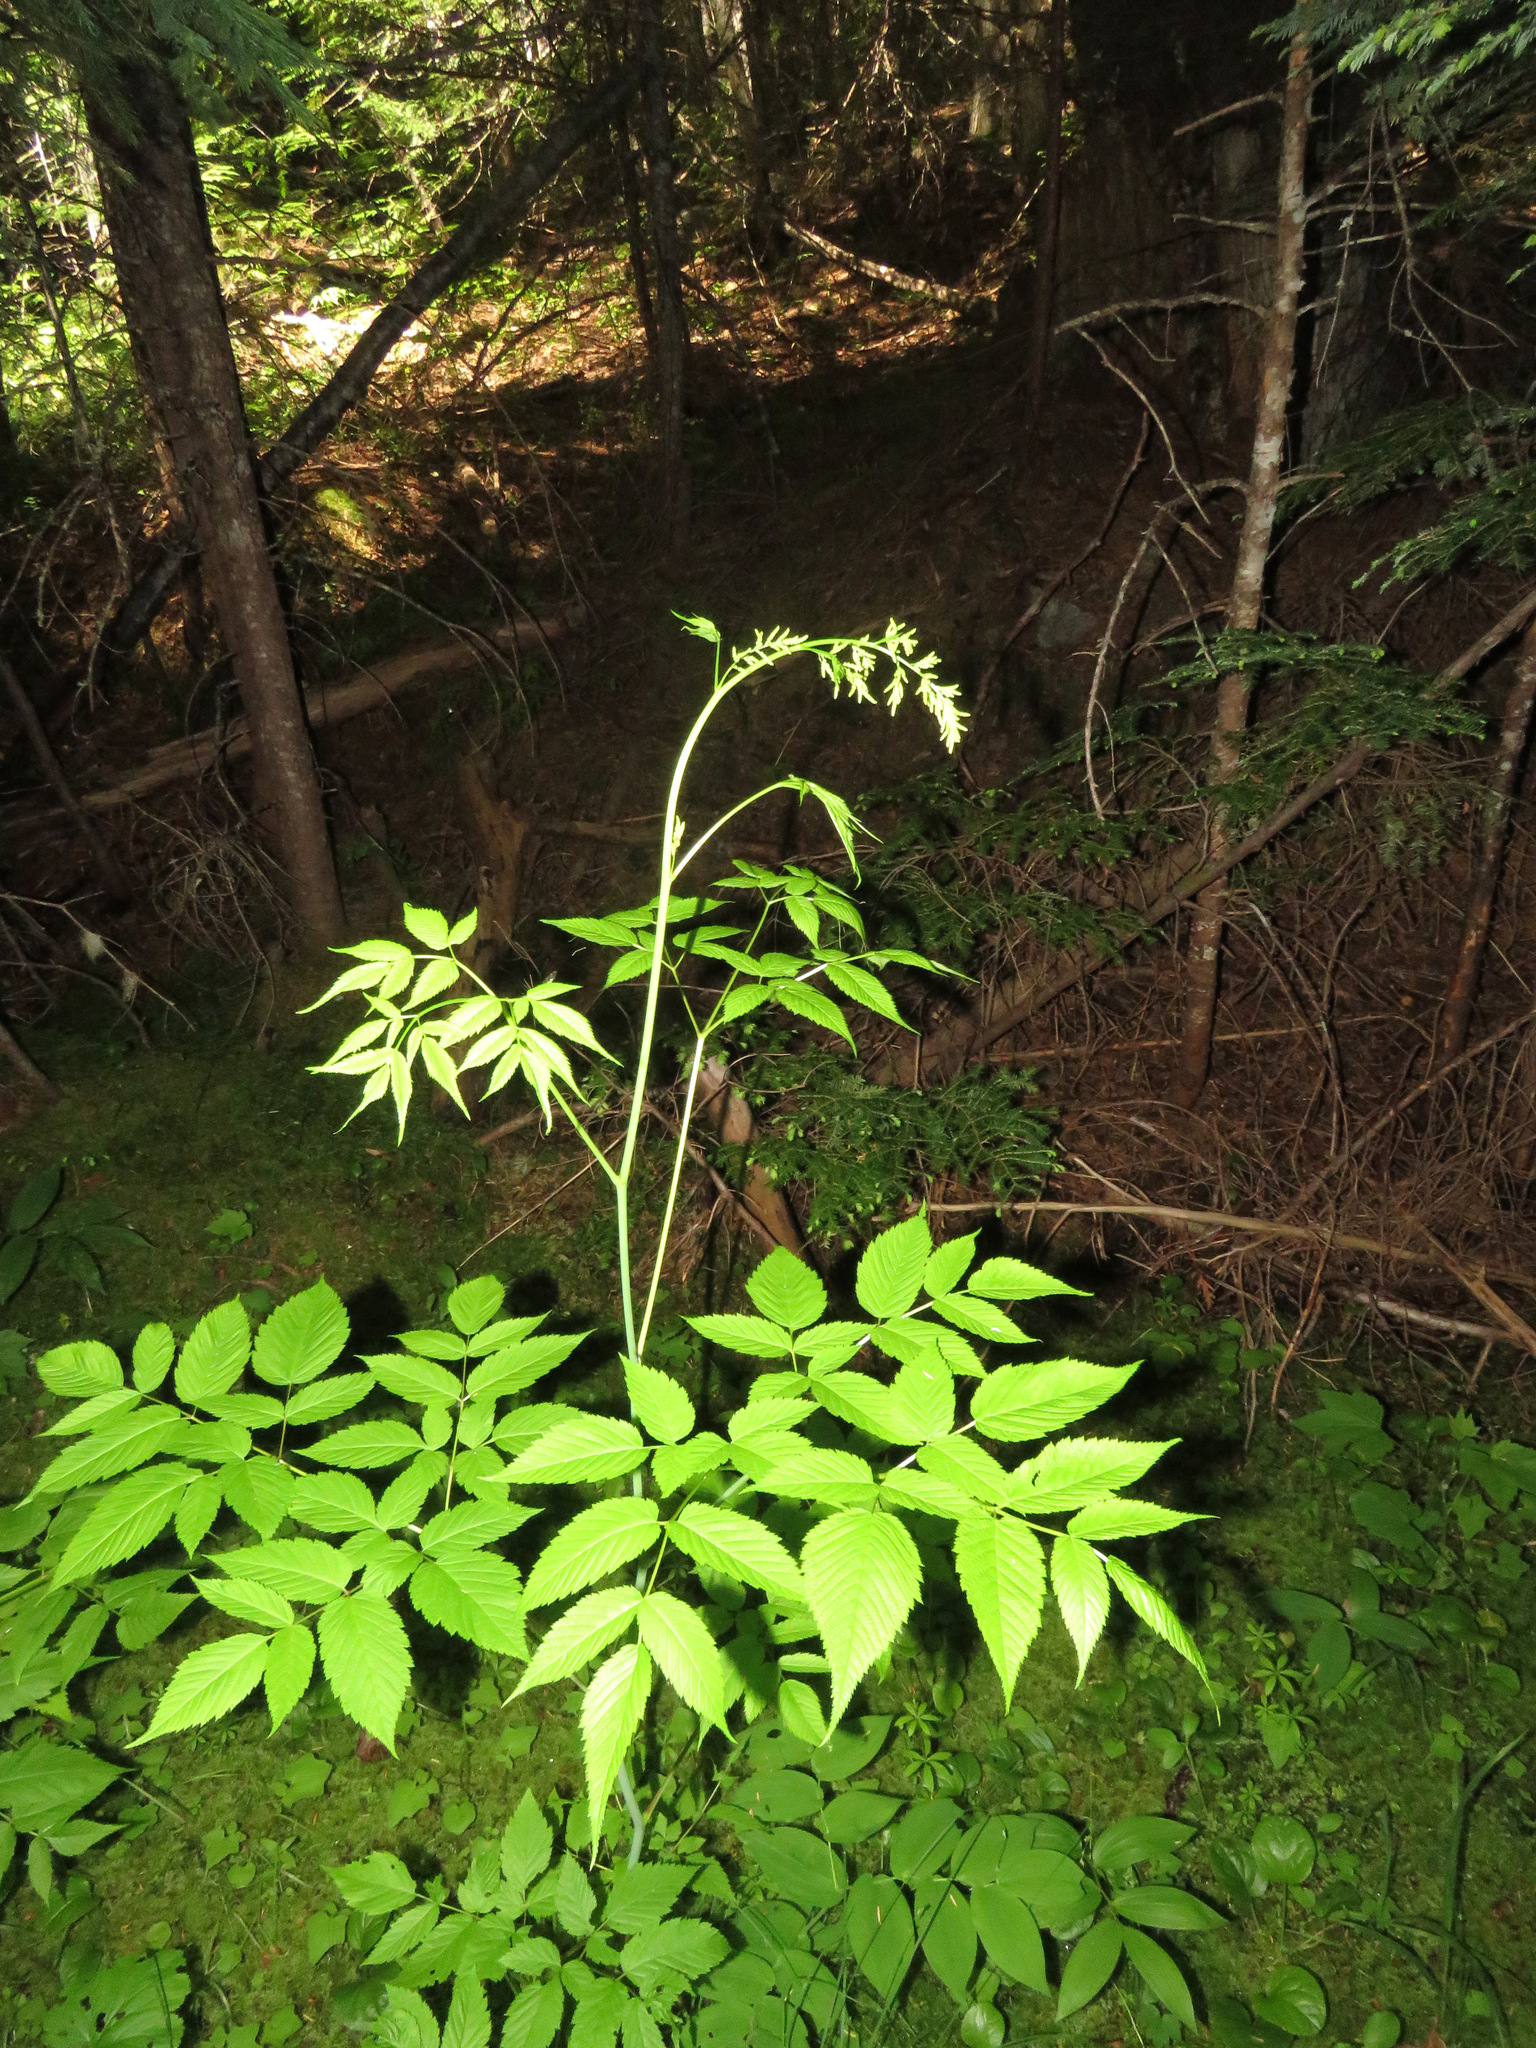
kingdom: Plantae
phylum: Tracheophyta
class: Magnoliopsida
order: Rosales
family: Rosaceae
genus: Aruncus
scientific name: Aruncus dioicus
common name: Buck's-beard
